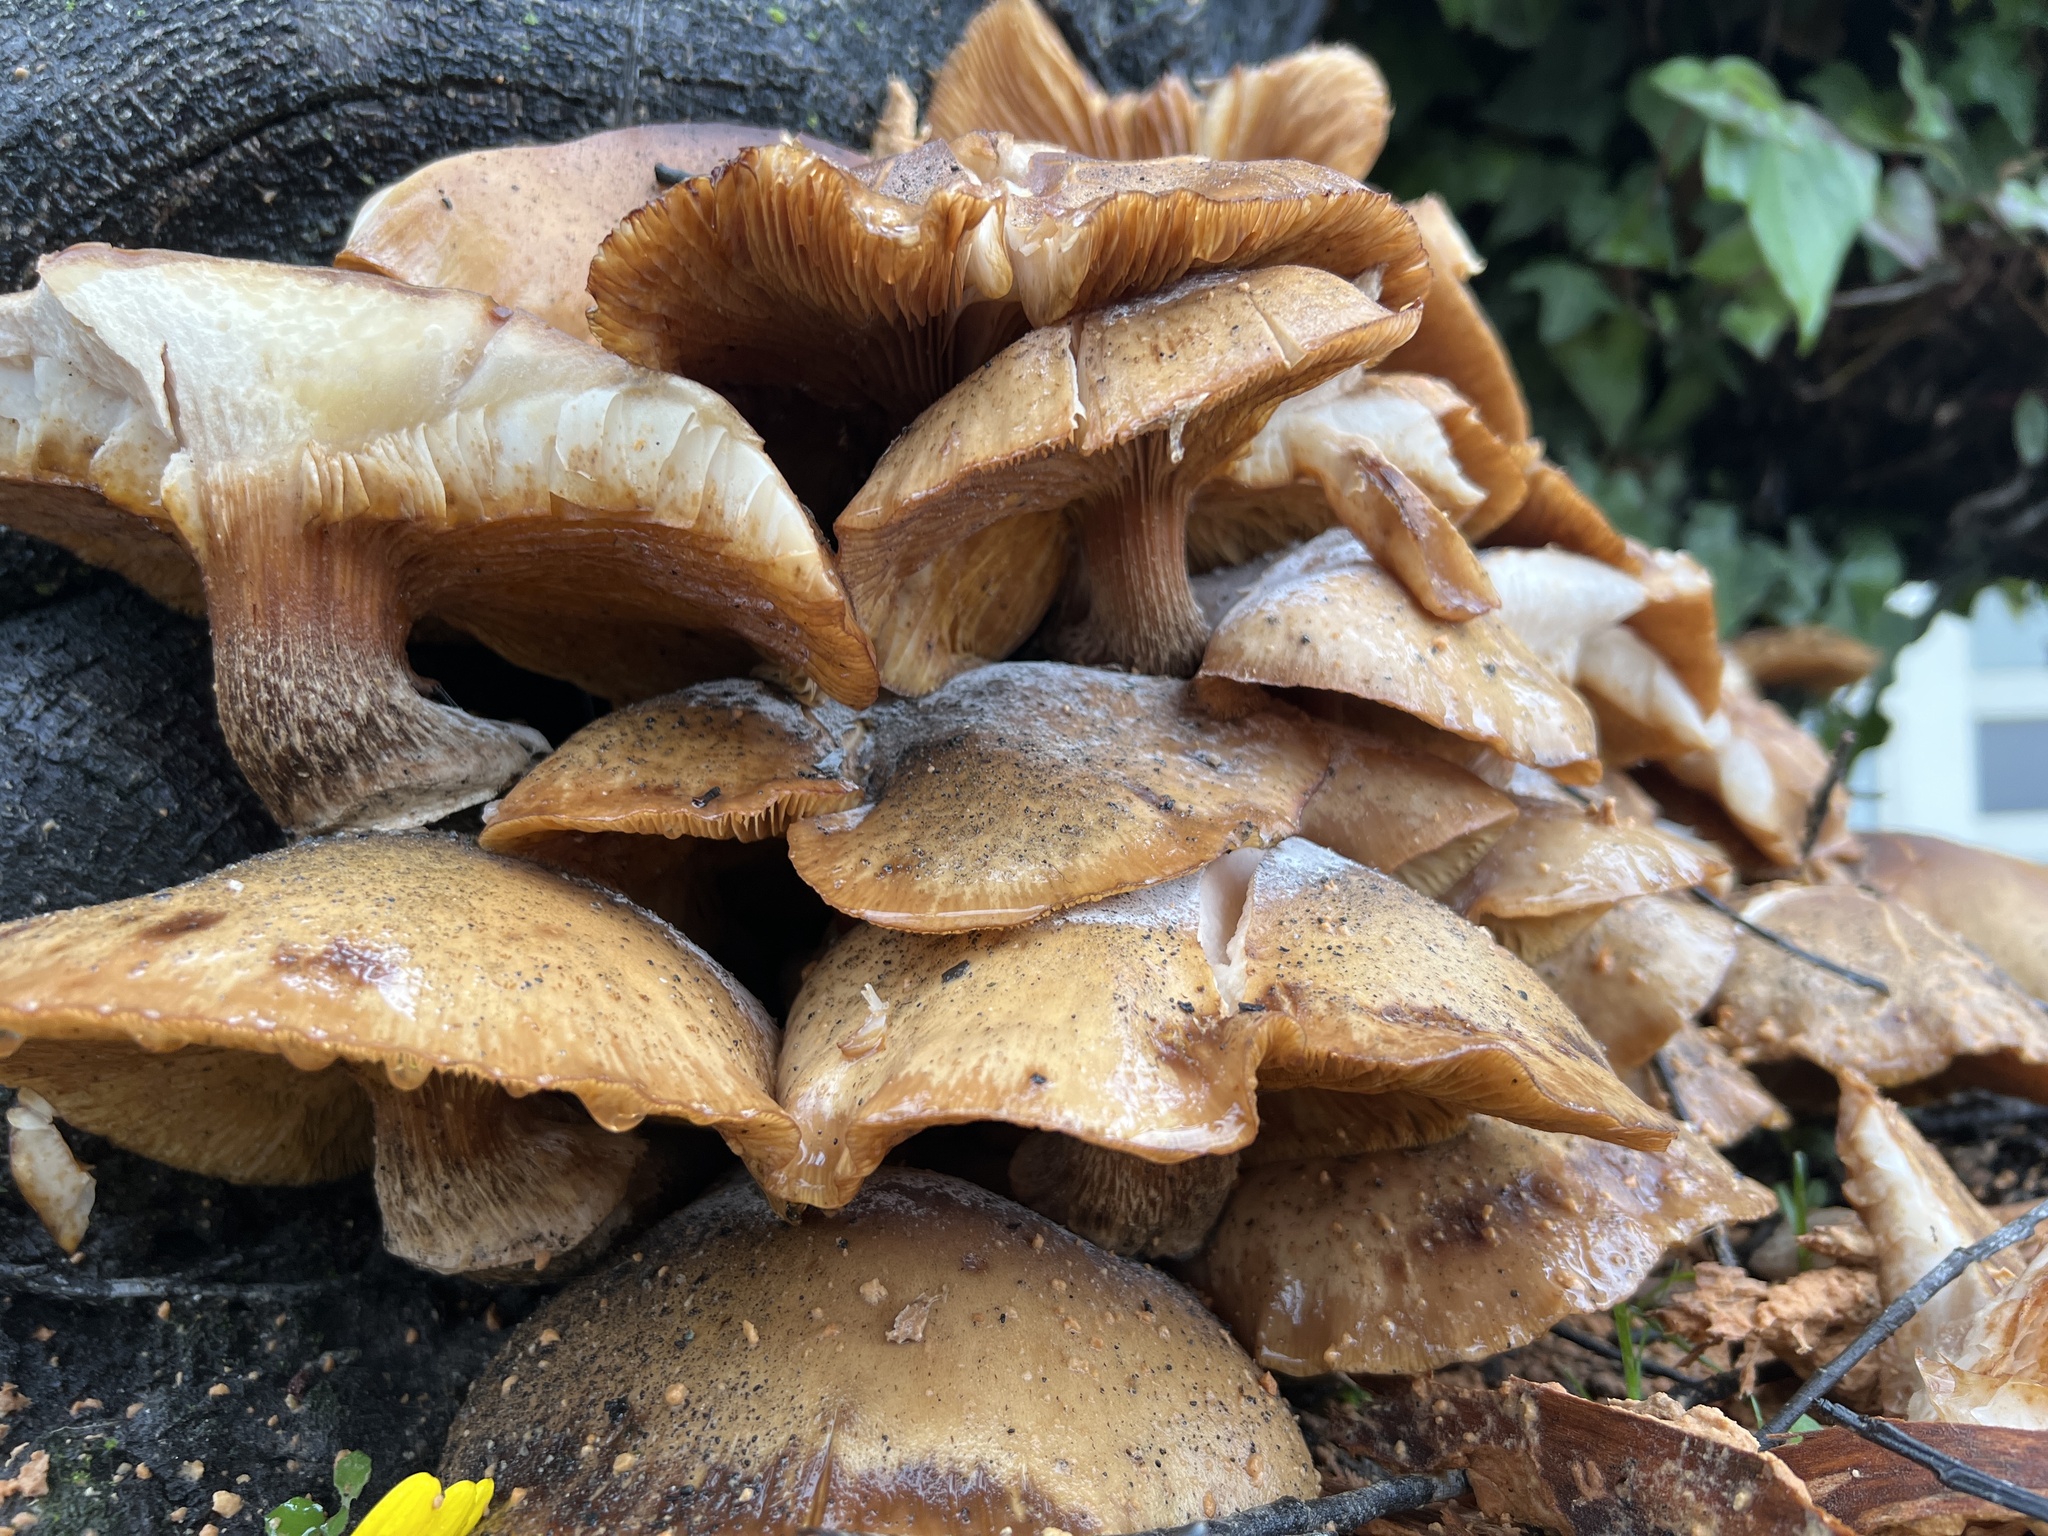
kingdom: Fungi
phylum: Basidiomycota
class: Agaricomycetes
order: Agaricales
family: Physalacriaceae
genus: Armillaria
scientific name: Armillaria mellea
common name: Honey fungus
